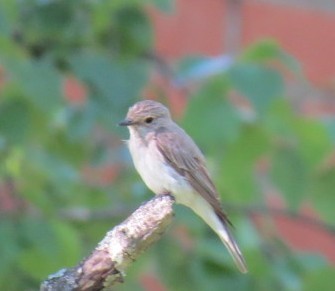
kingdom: Animalia
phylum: Chordata
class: Aves
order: Passeriformes
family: Muscicapidae
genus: Muscicapa
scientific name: Muscicapa striata
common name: Spotted flycatcher
